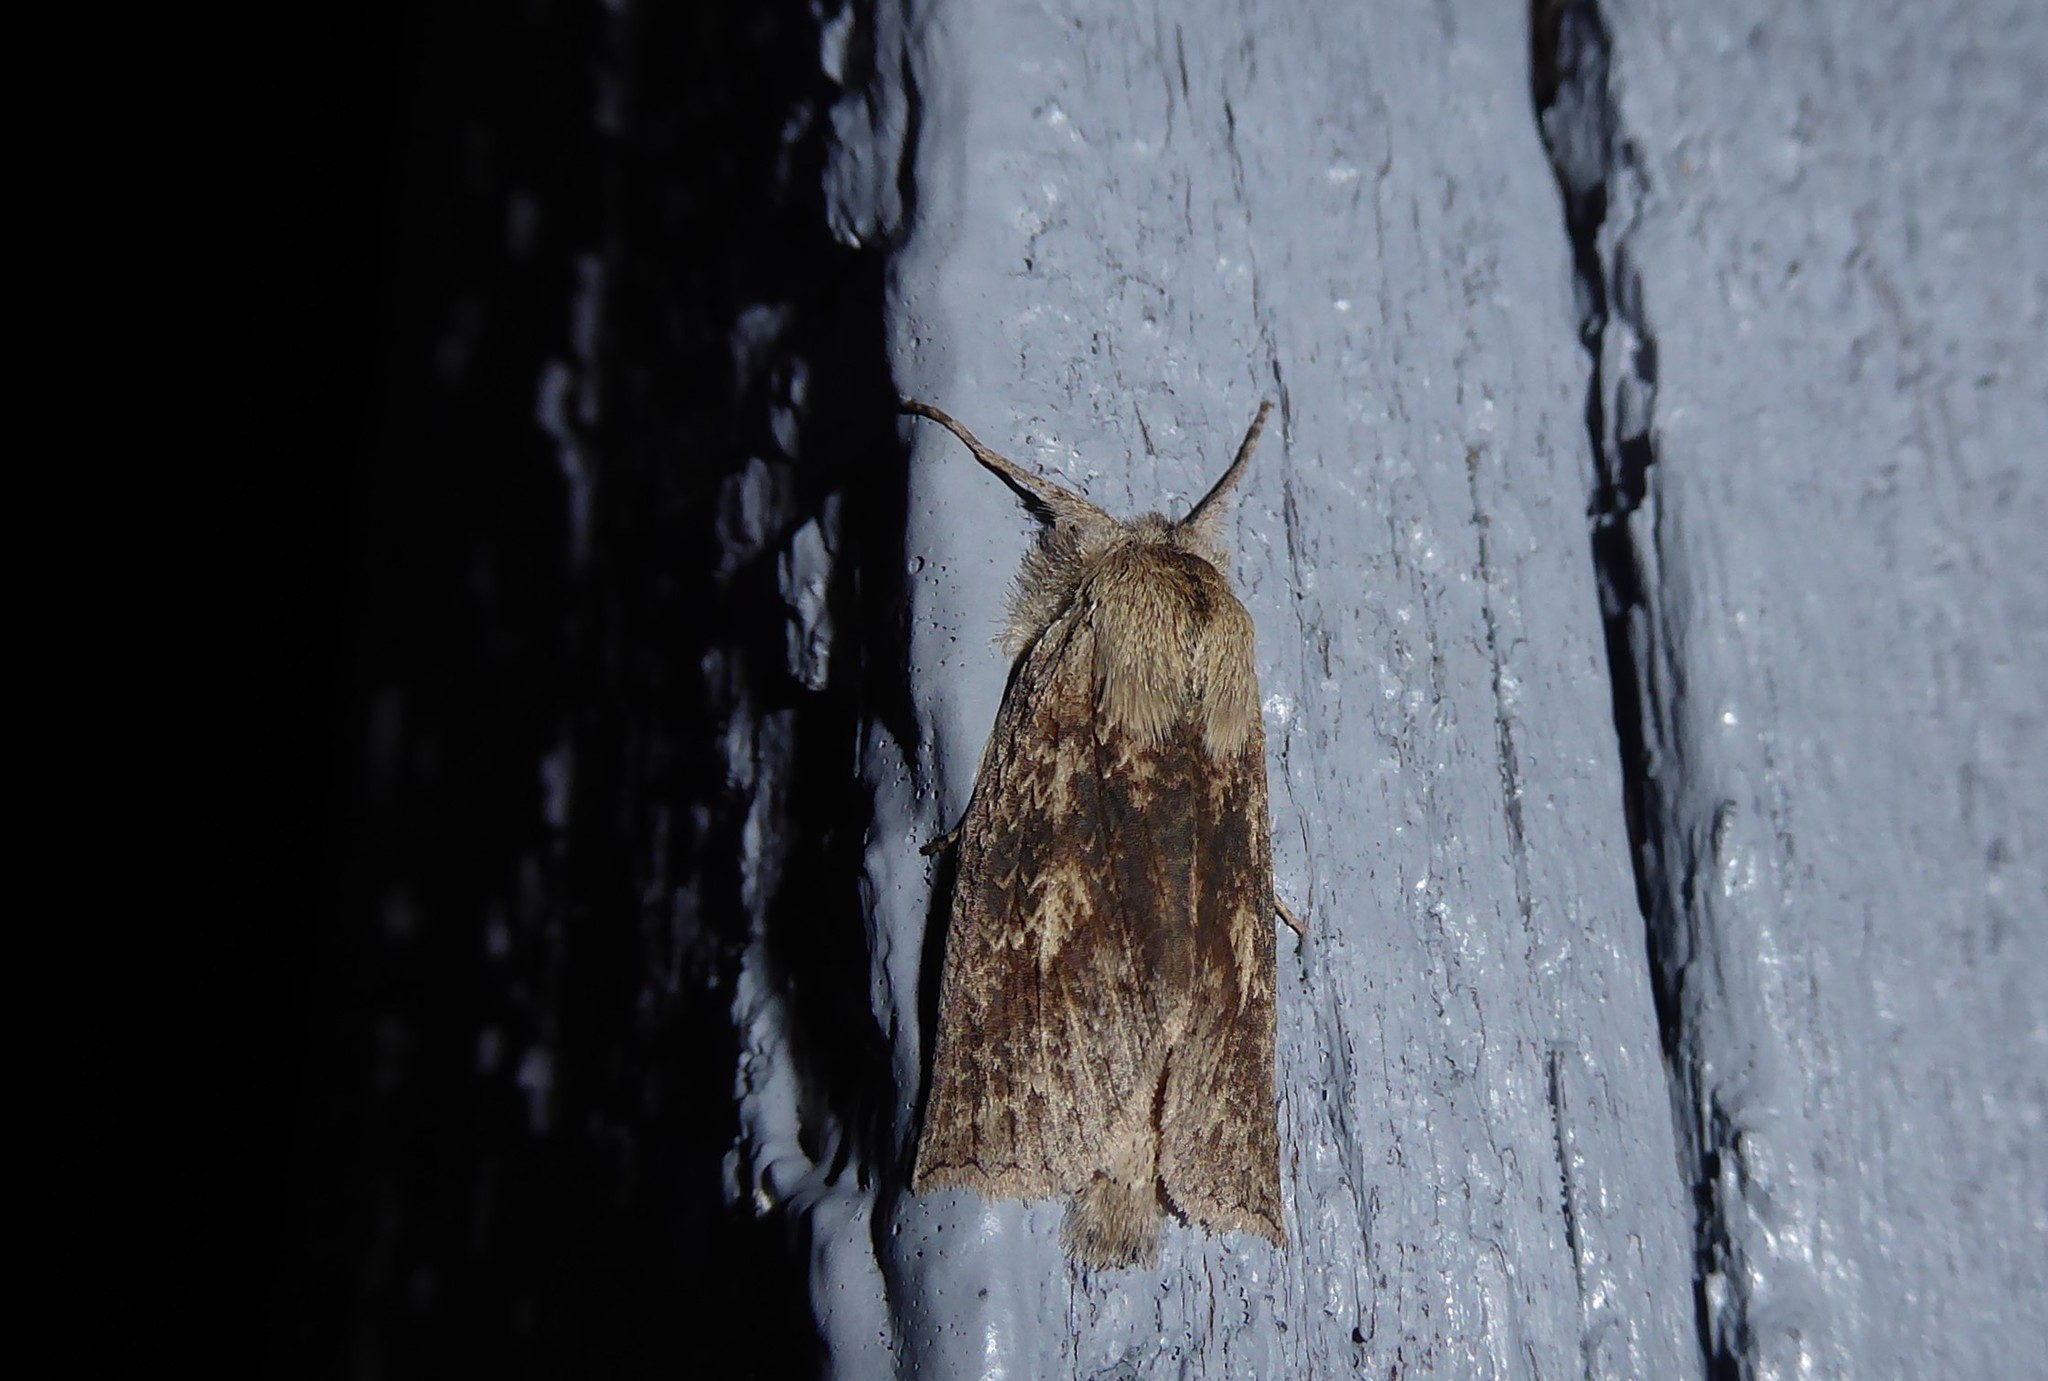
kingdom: Animalia
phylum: Arthropoda
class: Insecta
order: Lepidoptera
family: Geometridae
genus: Declana
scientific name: Declana leptomera
